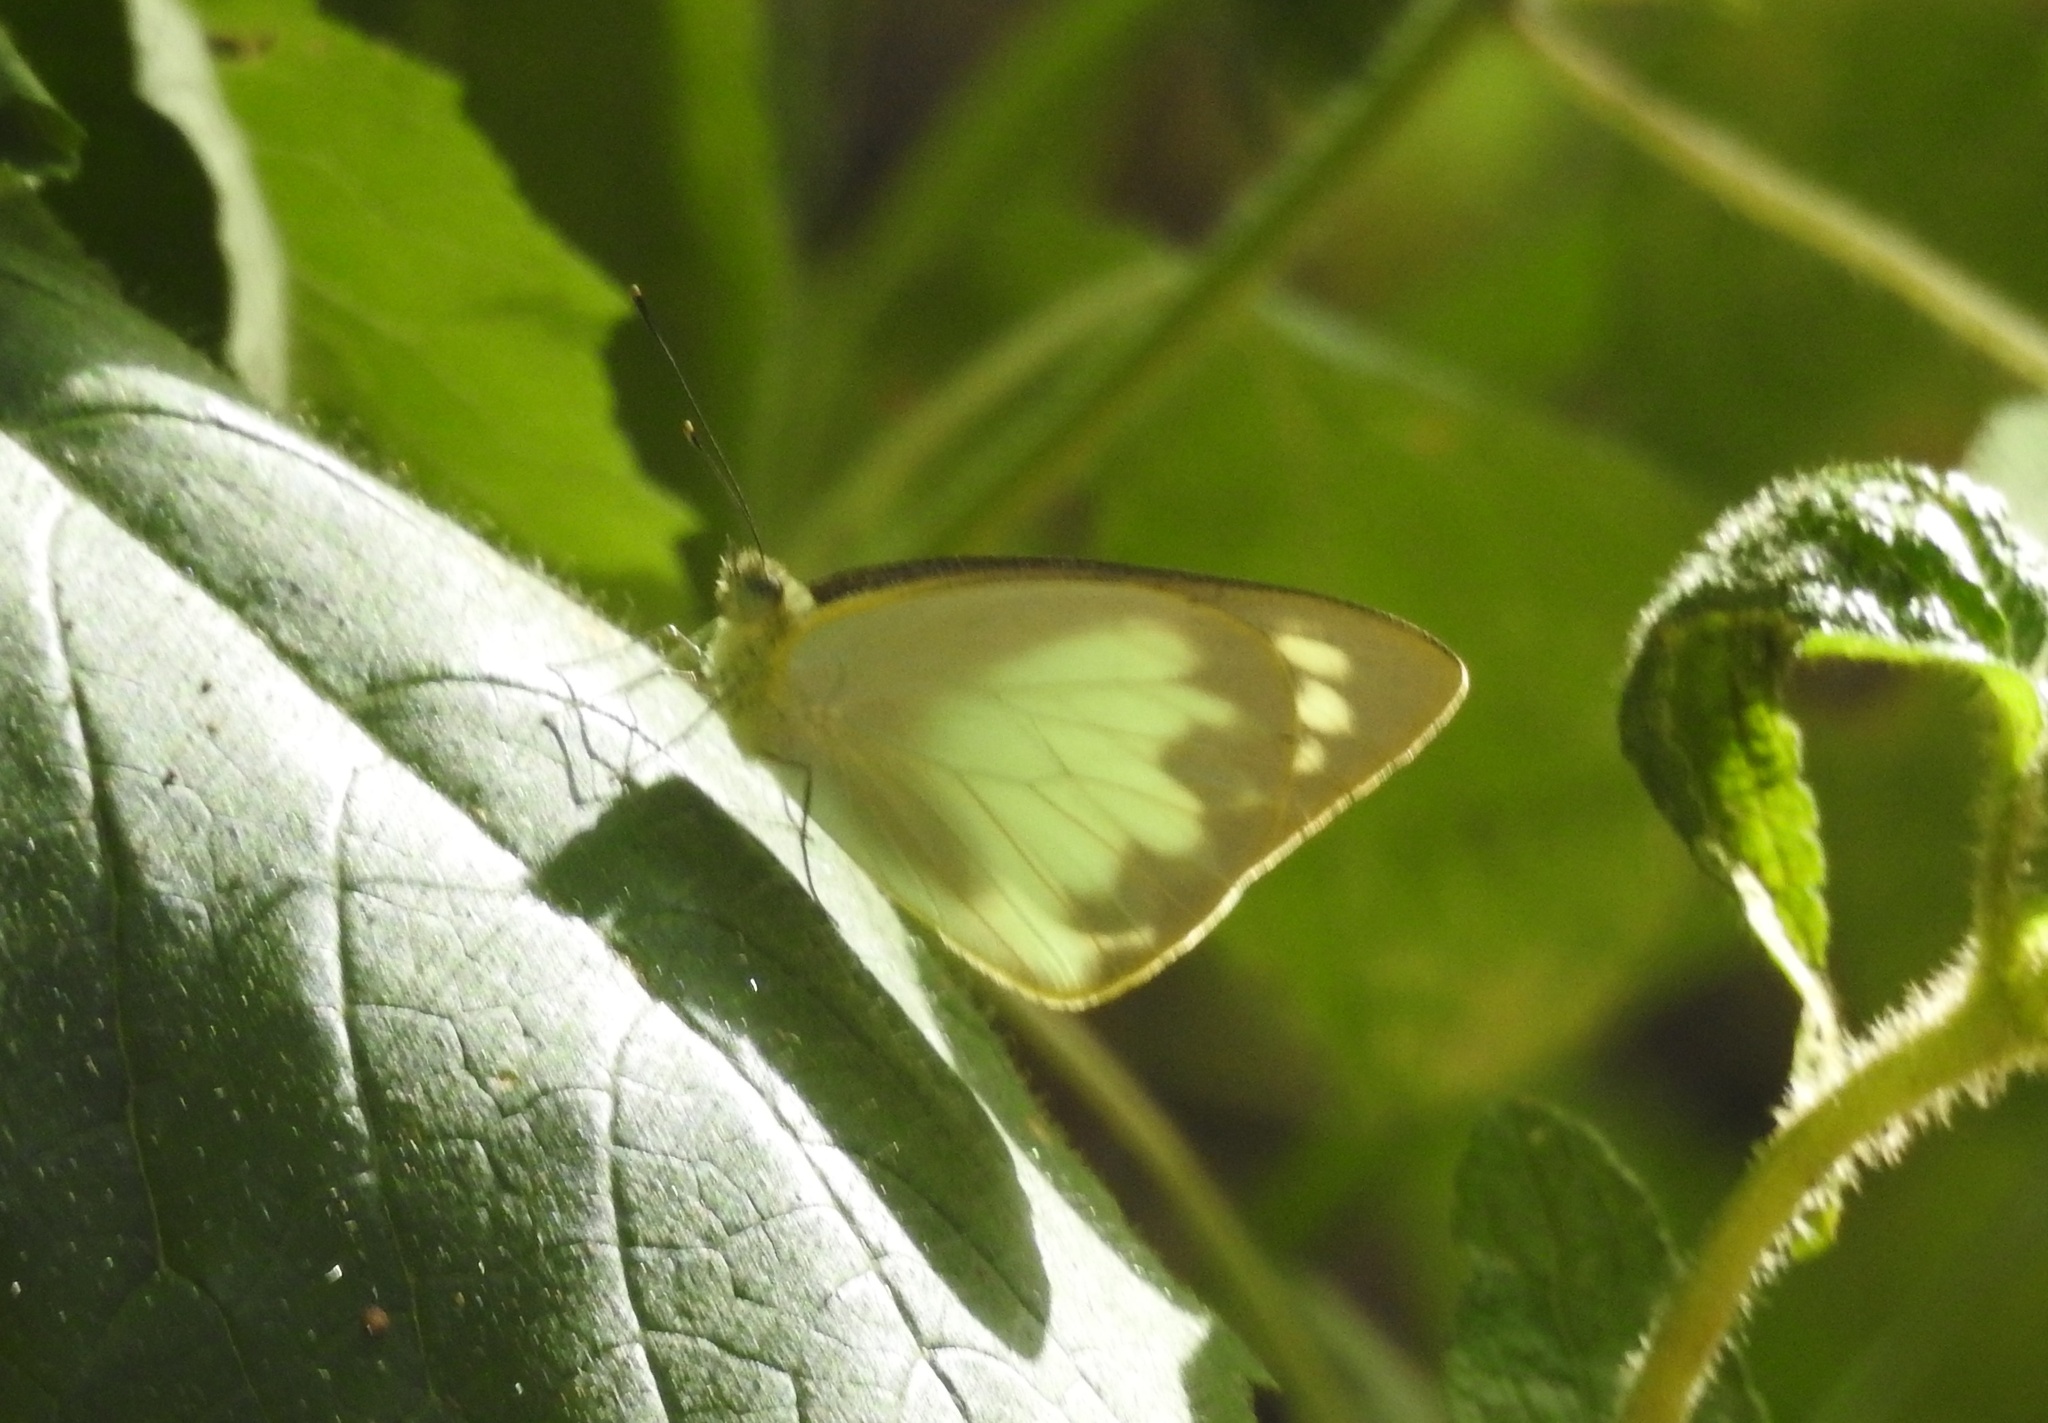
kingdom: Animalia
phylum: Arthropoda
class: Insecta
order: Lepidoptera
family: Pieridae
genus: Appias
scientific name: Appias albina
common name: Common albatross
